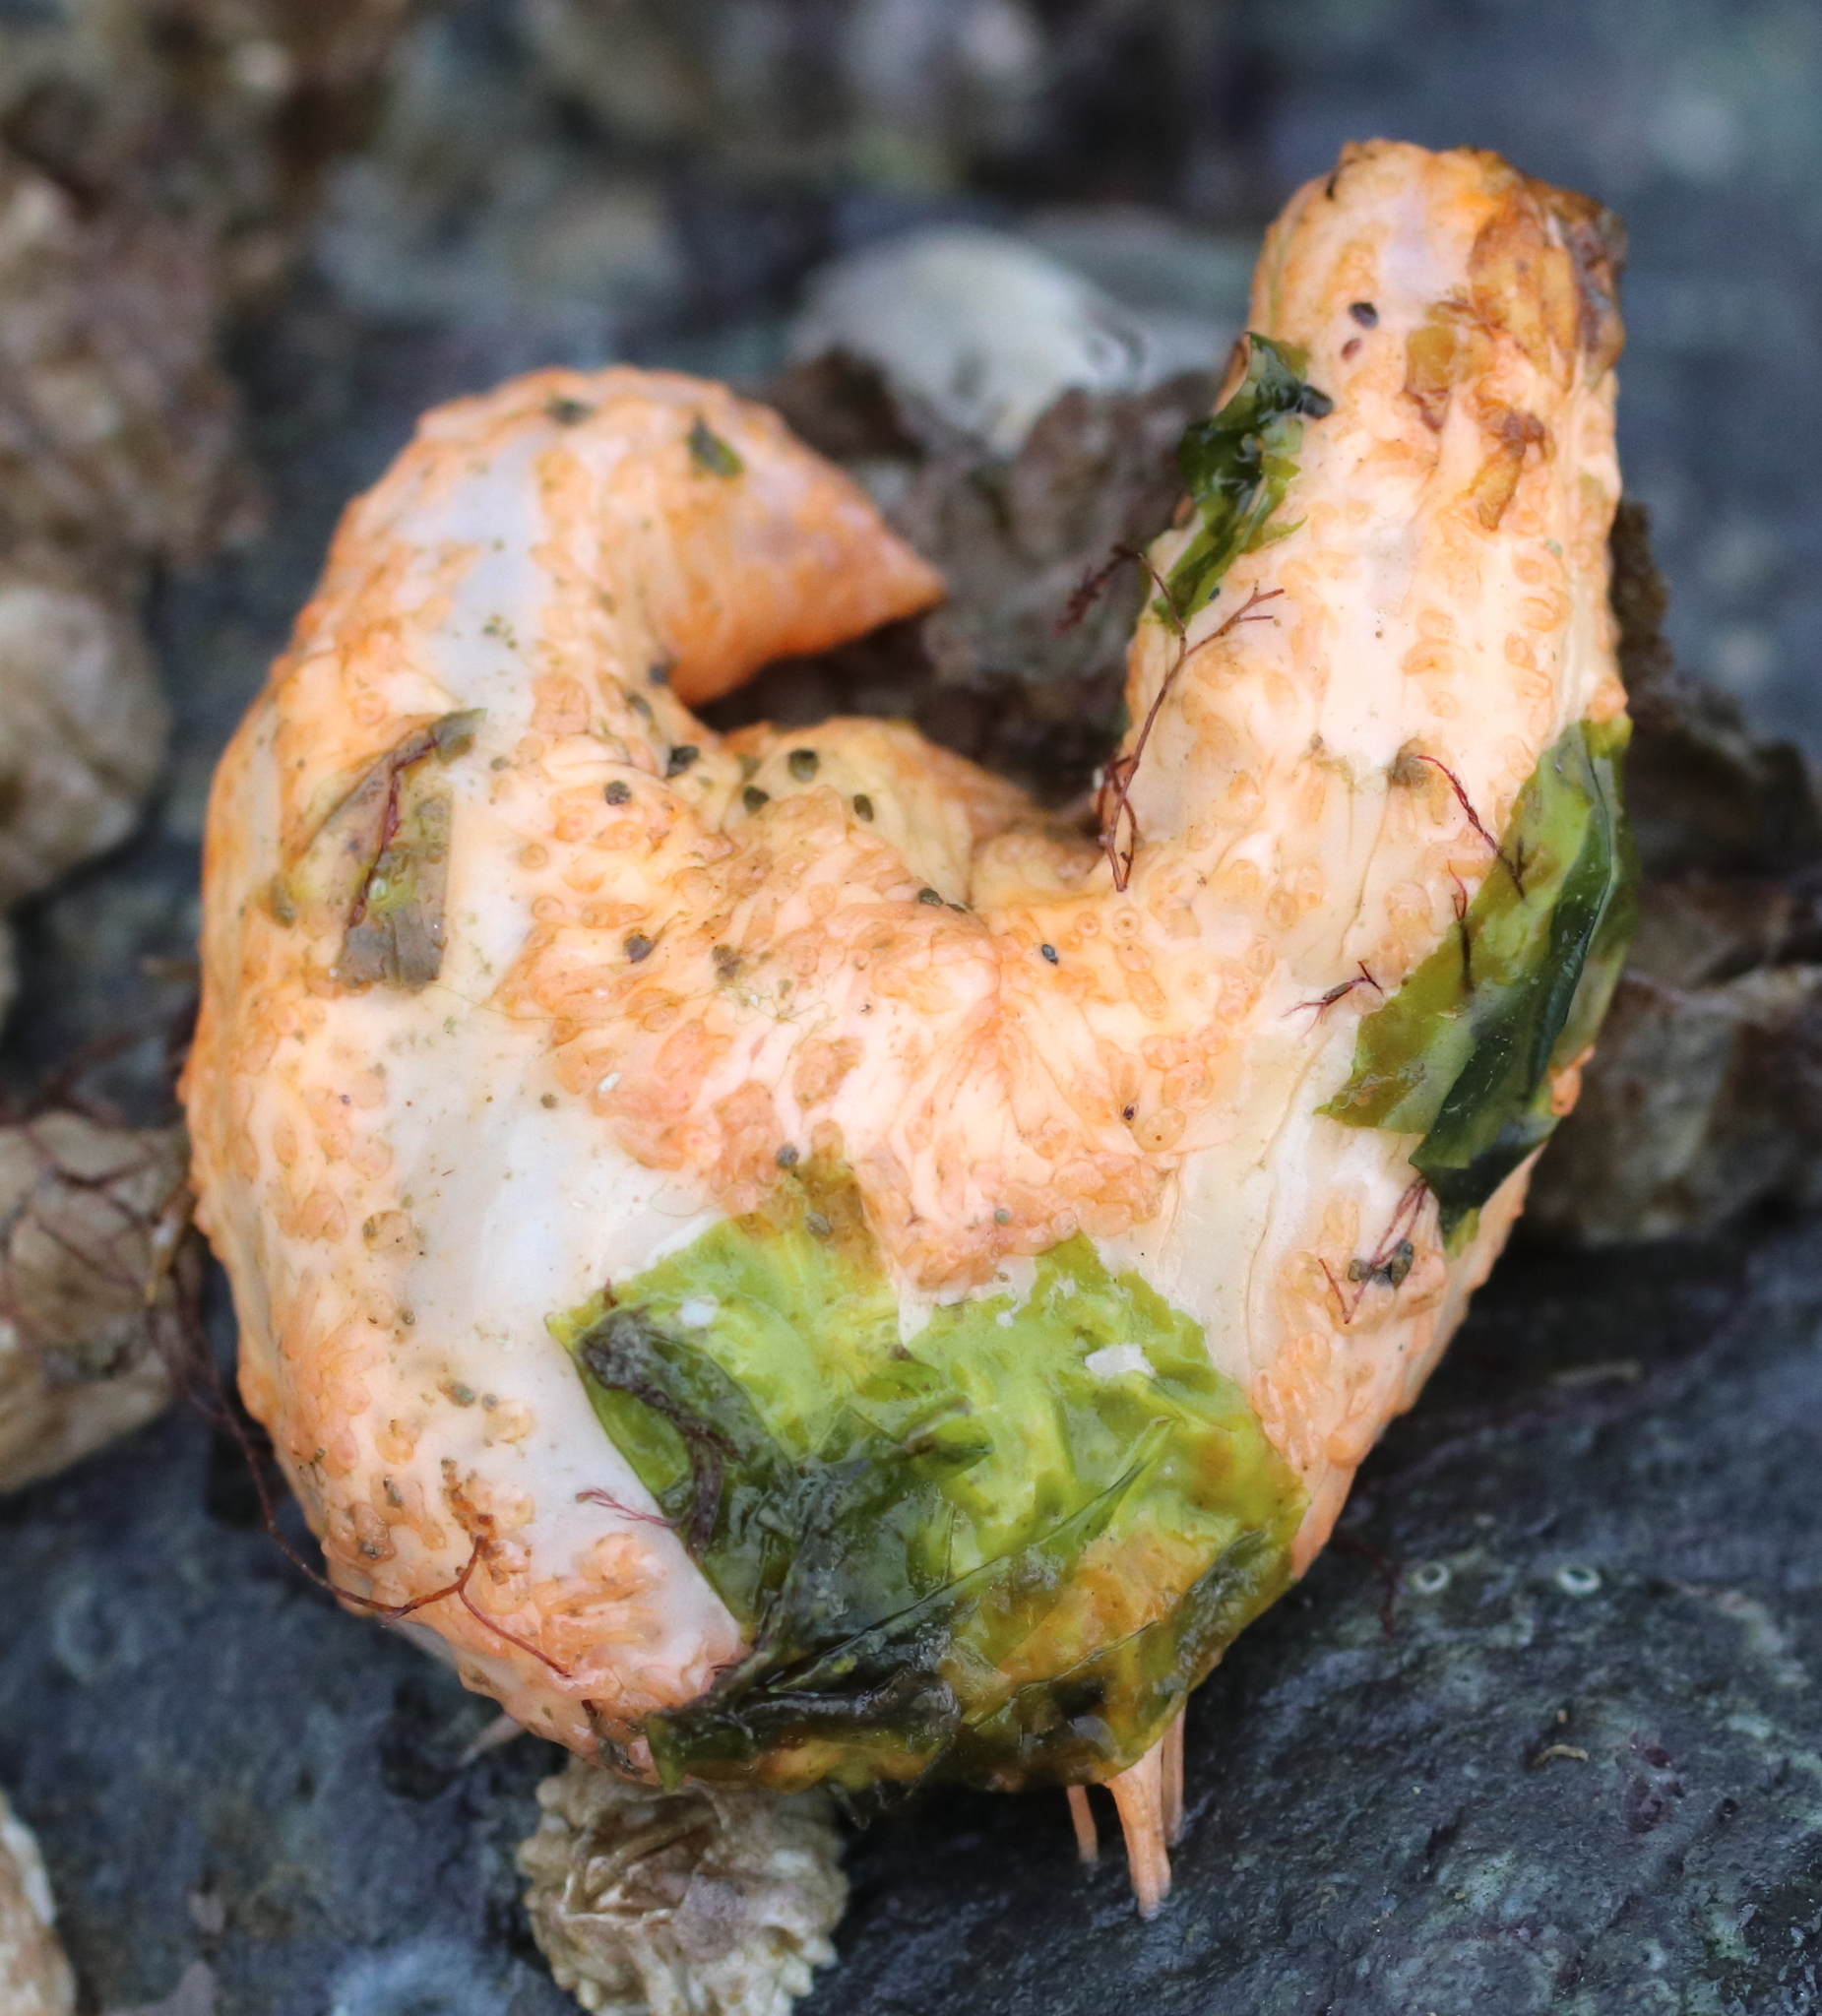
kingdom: Animalia
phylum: Echinodermata
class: Holothuroidea
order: Dendrochirotida
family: Sclerodactylidae
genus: Eupentacta
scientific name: Eupentacta pseudoquinquesemita
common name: Pseudo-white sea cucumber
